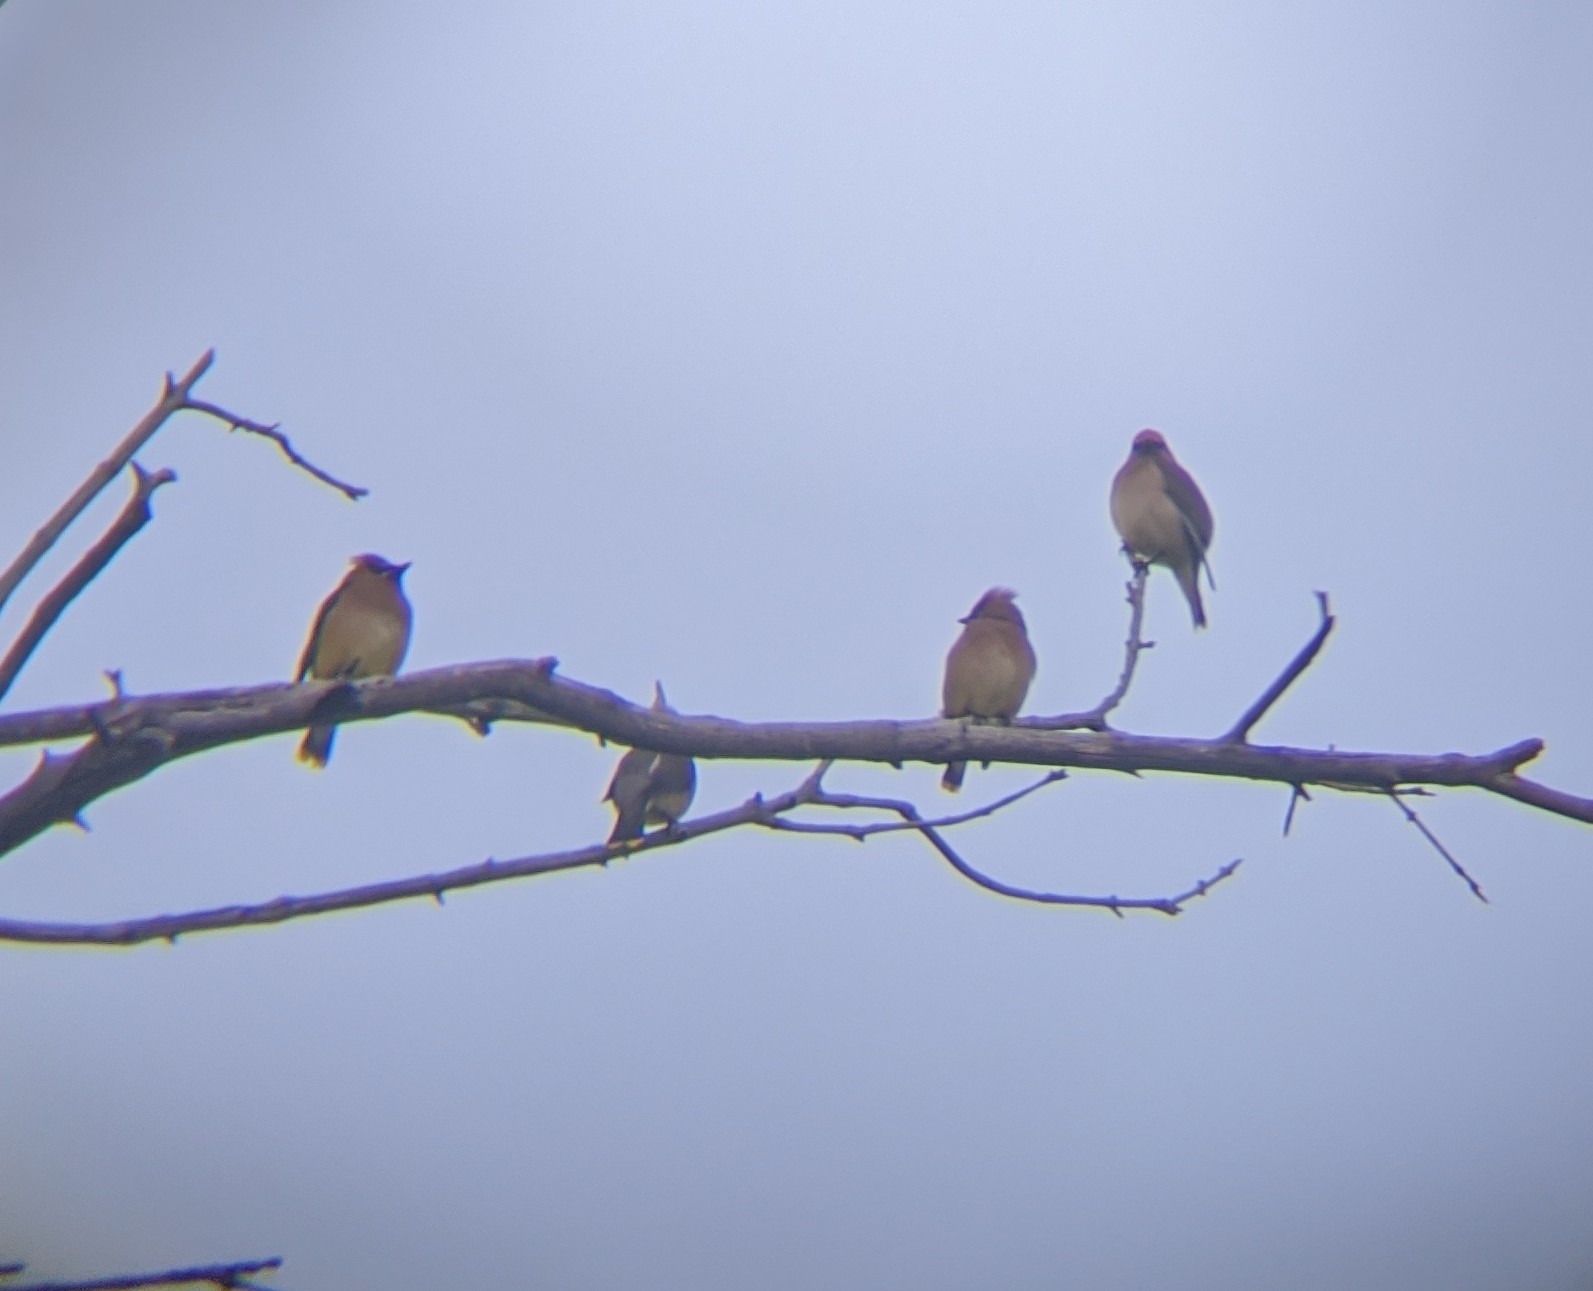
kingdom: Animalia
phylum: Chordata
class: Aves
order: Passeriformes
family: Bombycillidae
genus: Bombycilla
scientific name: Bombycilla cedrorum
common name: Cedar waxwing
